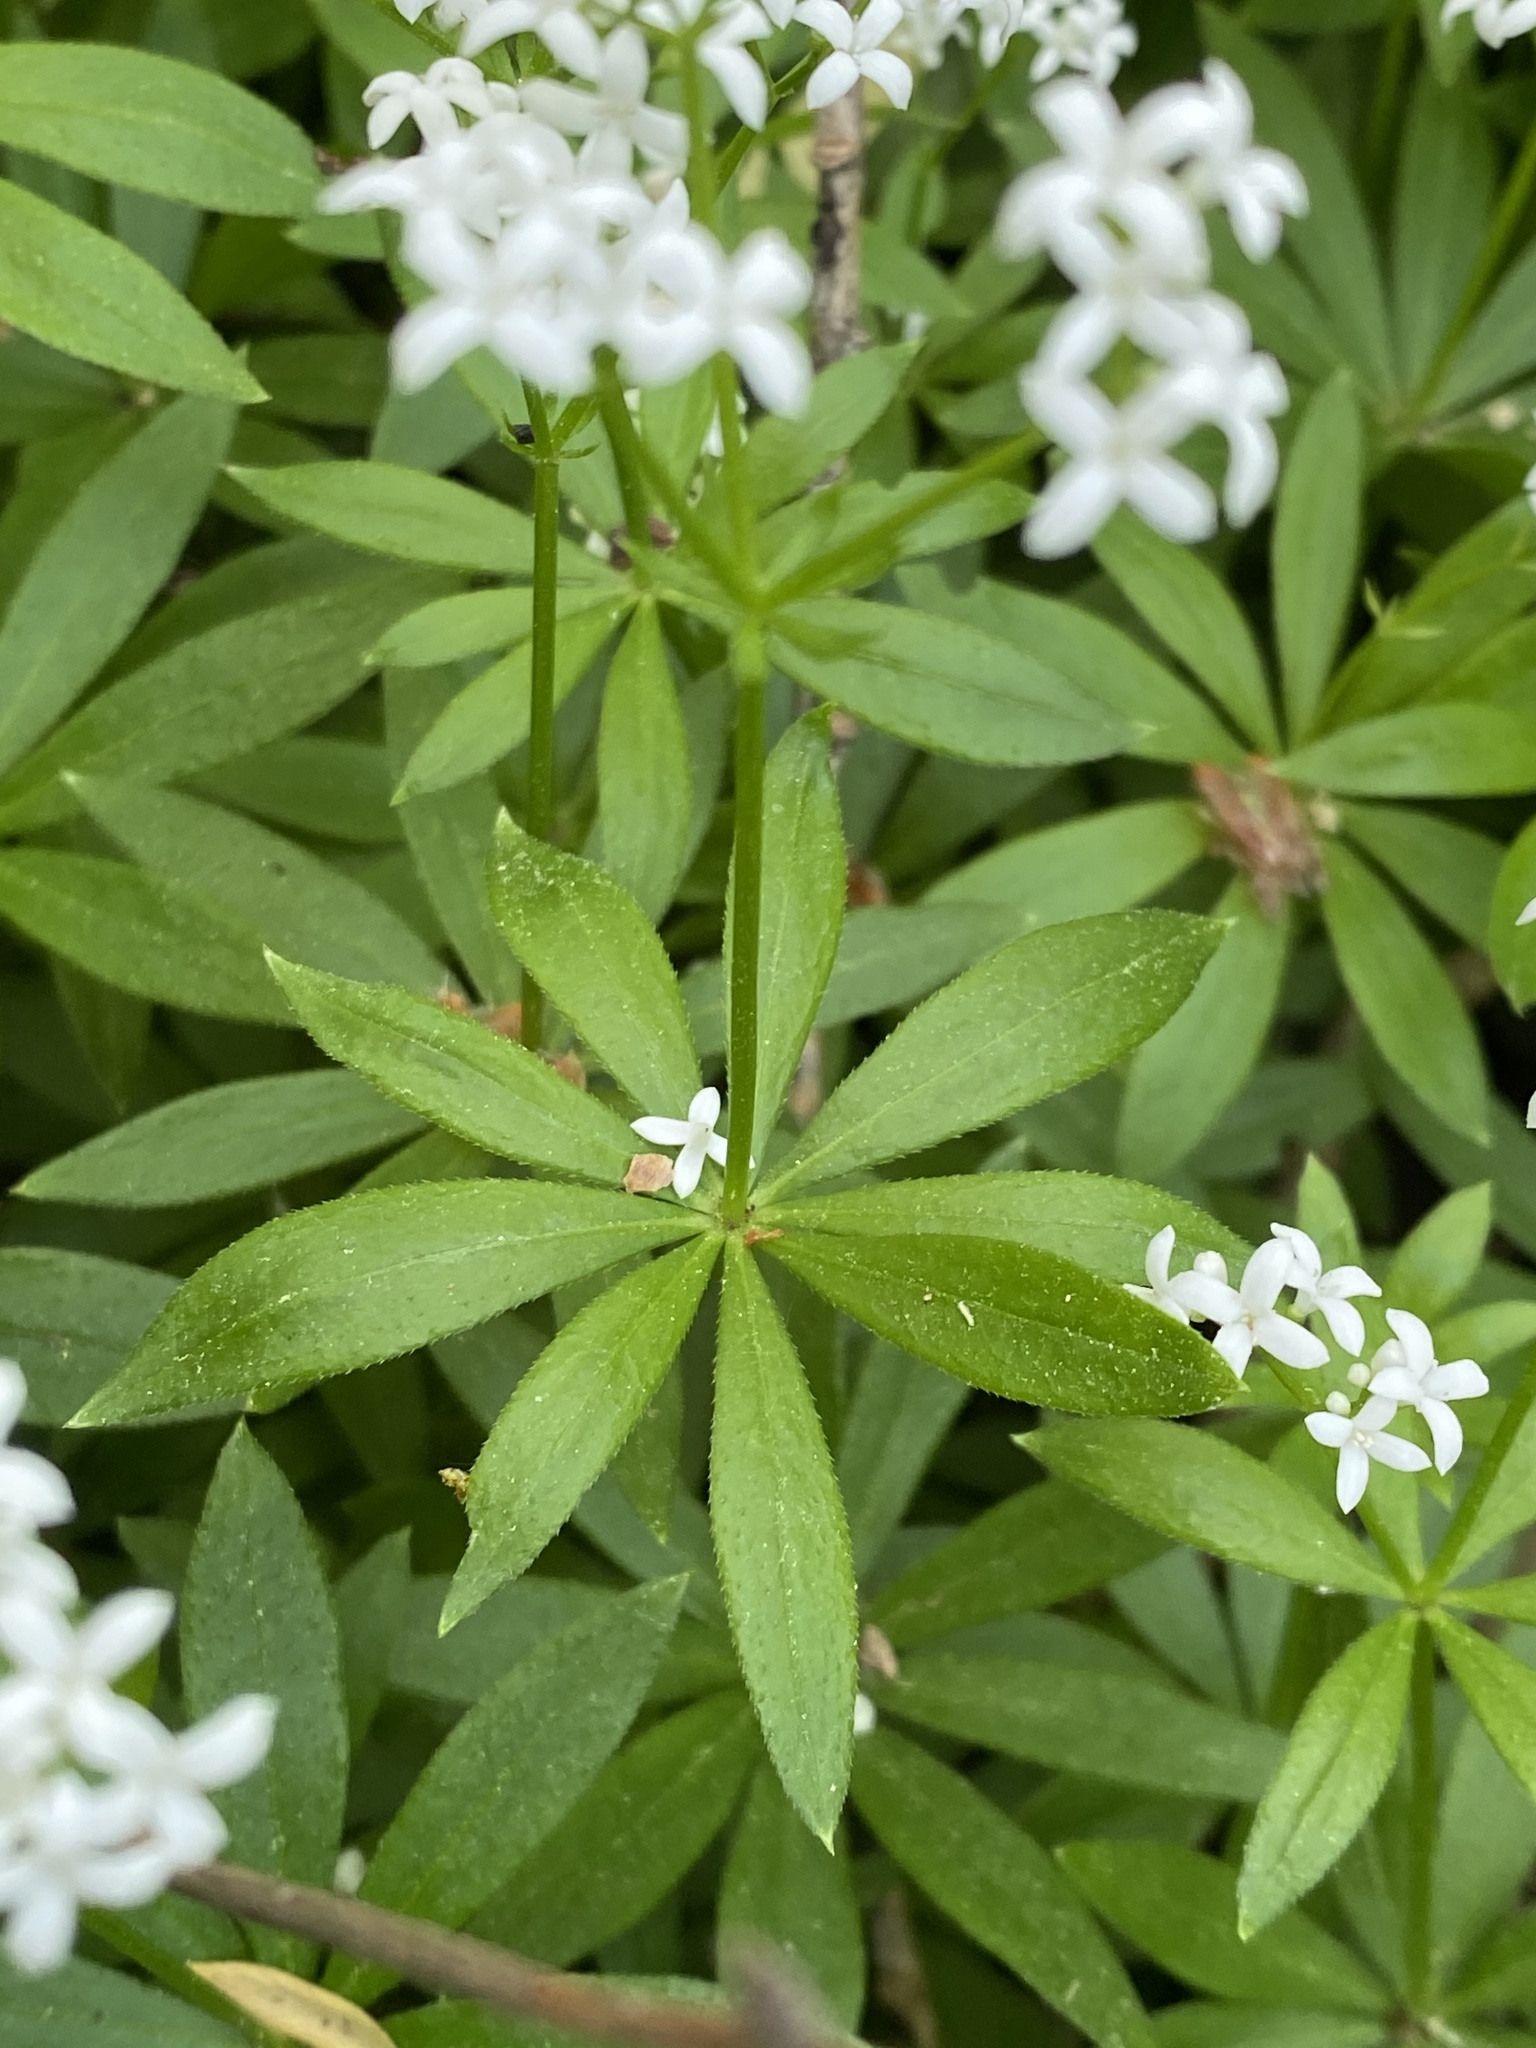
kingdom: Plantae
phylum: Tracheophyta
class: Magnoliopsida
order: Gentianales
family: Rubiaceae
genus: Galium
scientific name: Galium odoratum
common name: Sweet woodruff
